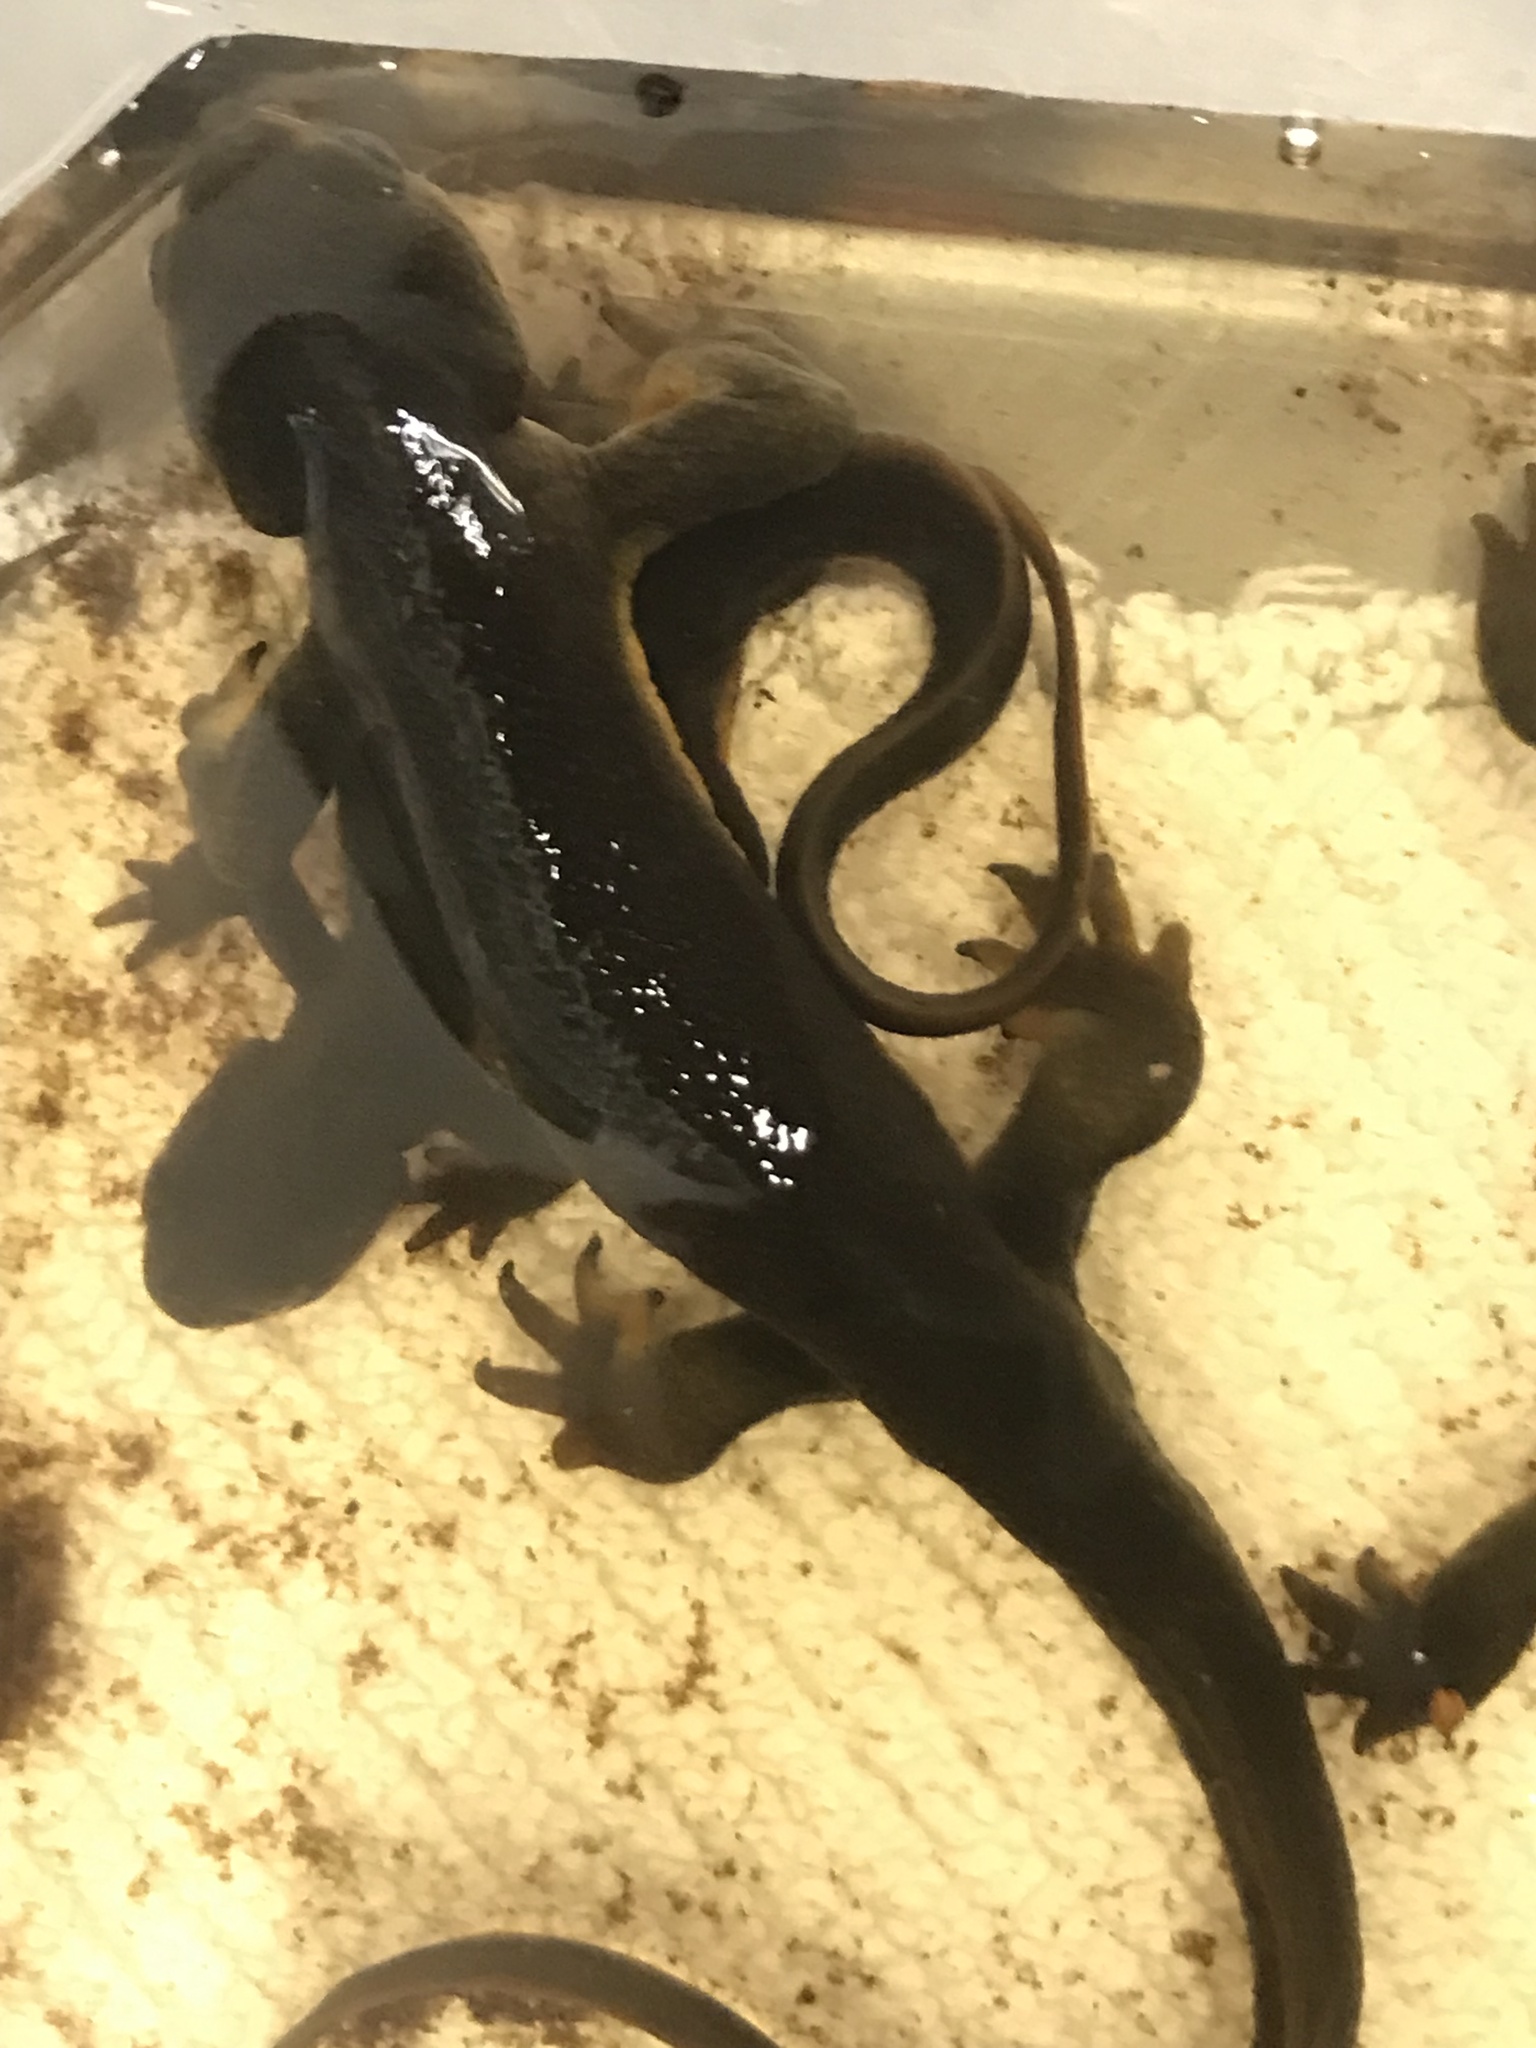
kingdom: Animalia
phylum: Chordata
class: Amphibia
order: Caudata
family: Salamandridae
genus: Taricha
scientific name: Taricha granulosa
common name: Roughskin newt
